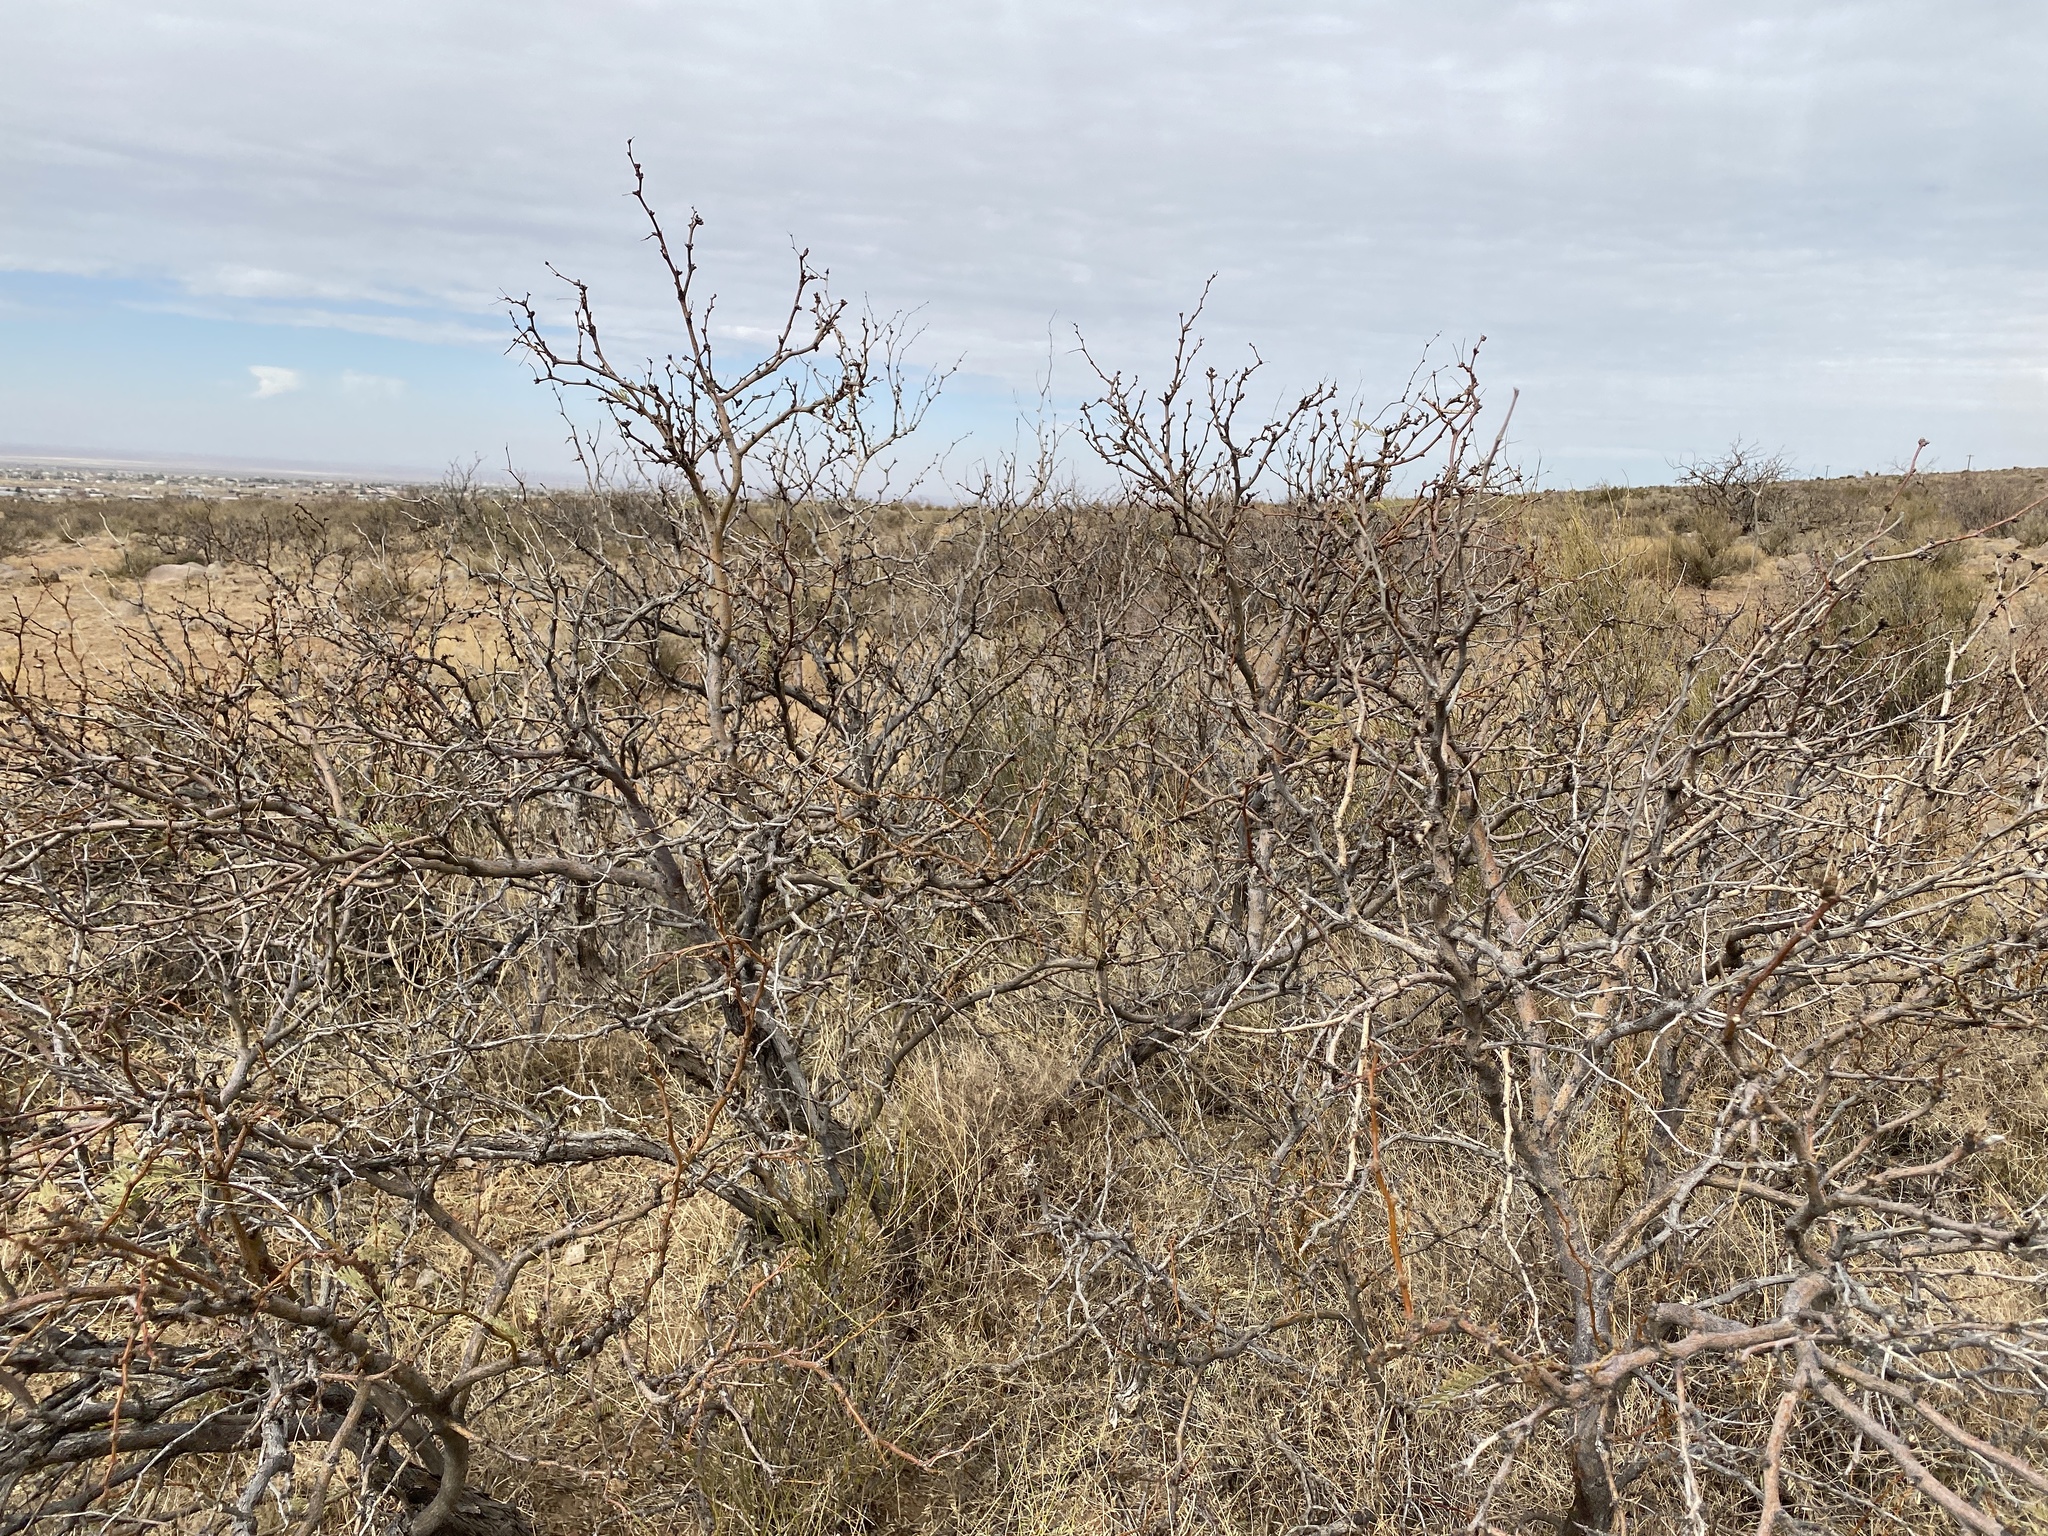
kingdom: Plantae
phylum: Tracheophyta
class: Magnoliopsida
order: Fabales
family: Fabaceae
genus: Prosopis
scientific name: Prosopis glandulosa
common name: Honey mesquite
